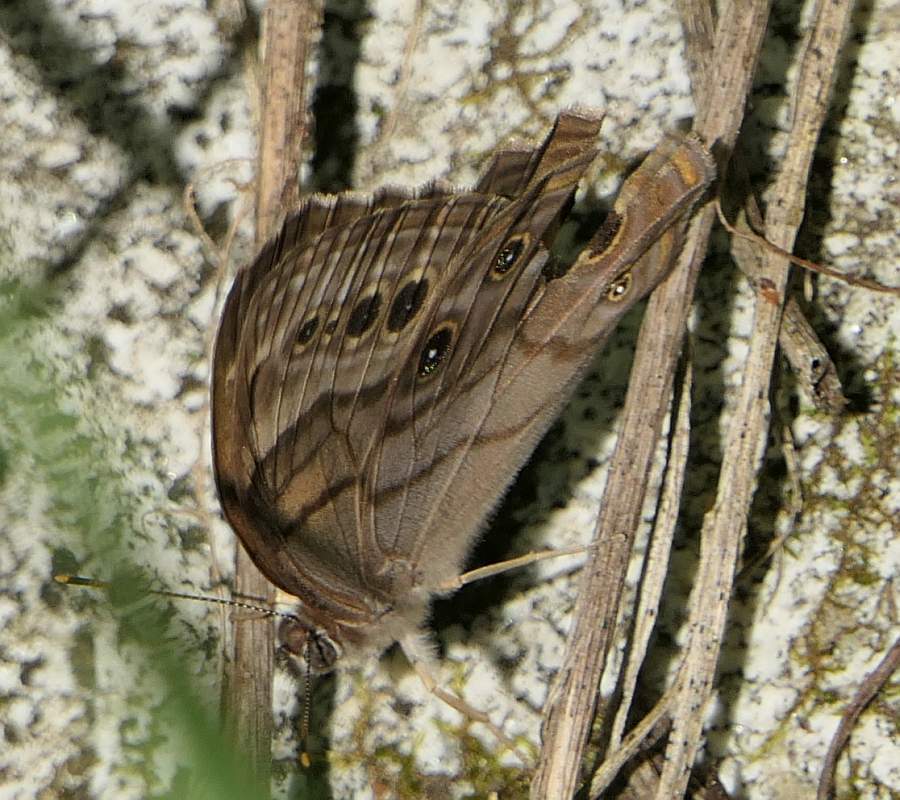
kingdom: Animalia
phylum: Arthropoda
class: Insecta
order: Lepidoptera
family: Nymphalidae
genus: Lethe
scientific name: Lethe anthedon
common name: Northern pearly-eye
